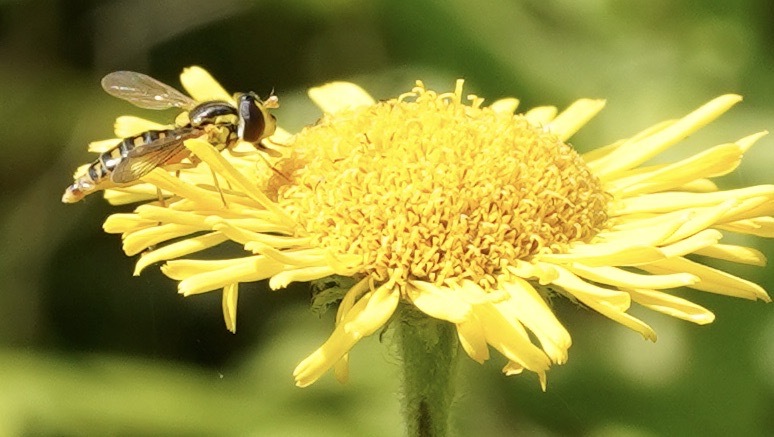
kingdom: Animalia
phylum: Arthropoda
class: Insecta
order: Diptera
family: Syrphidae
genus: Sphaerophoria
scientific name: Sphaerophoria
